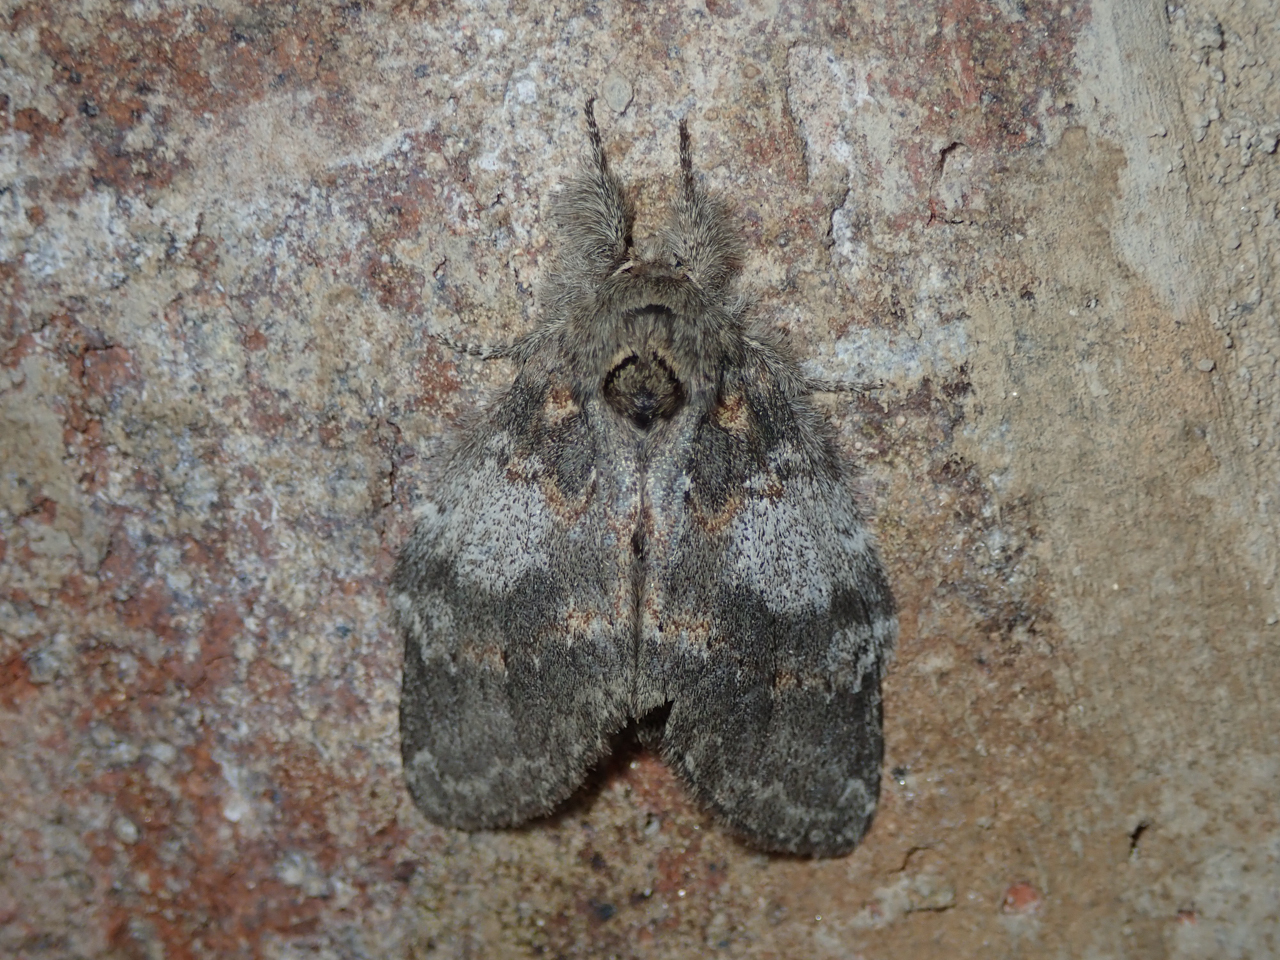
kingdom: Animalia
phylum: Arthropoda
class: Insecta
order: Lepidoptera
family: Notodontidae
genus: Peridea
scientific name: Peridea angulosa
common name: Angulose prominent
